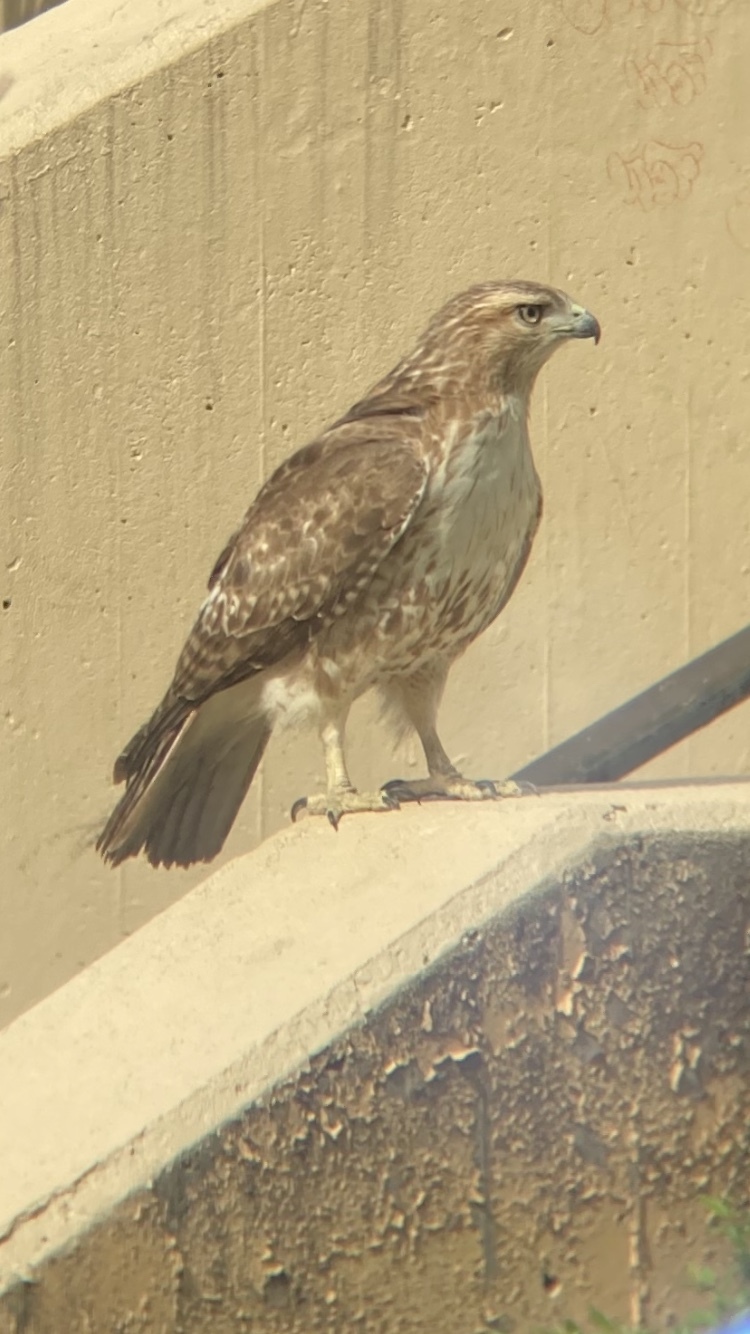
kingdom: Animalia
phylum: Chordata
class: Aves
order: Accipitriformes
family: Accipitridae
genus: Buteo
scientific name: Buteo jamaicensis
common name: Red-tailed hawk
